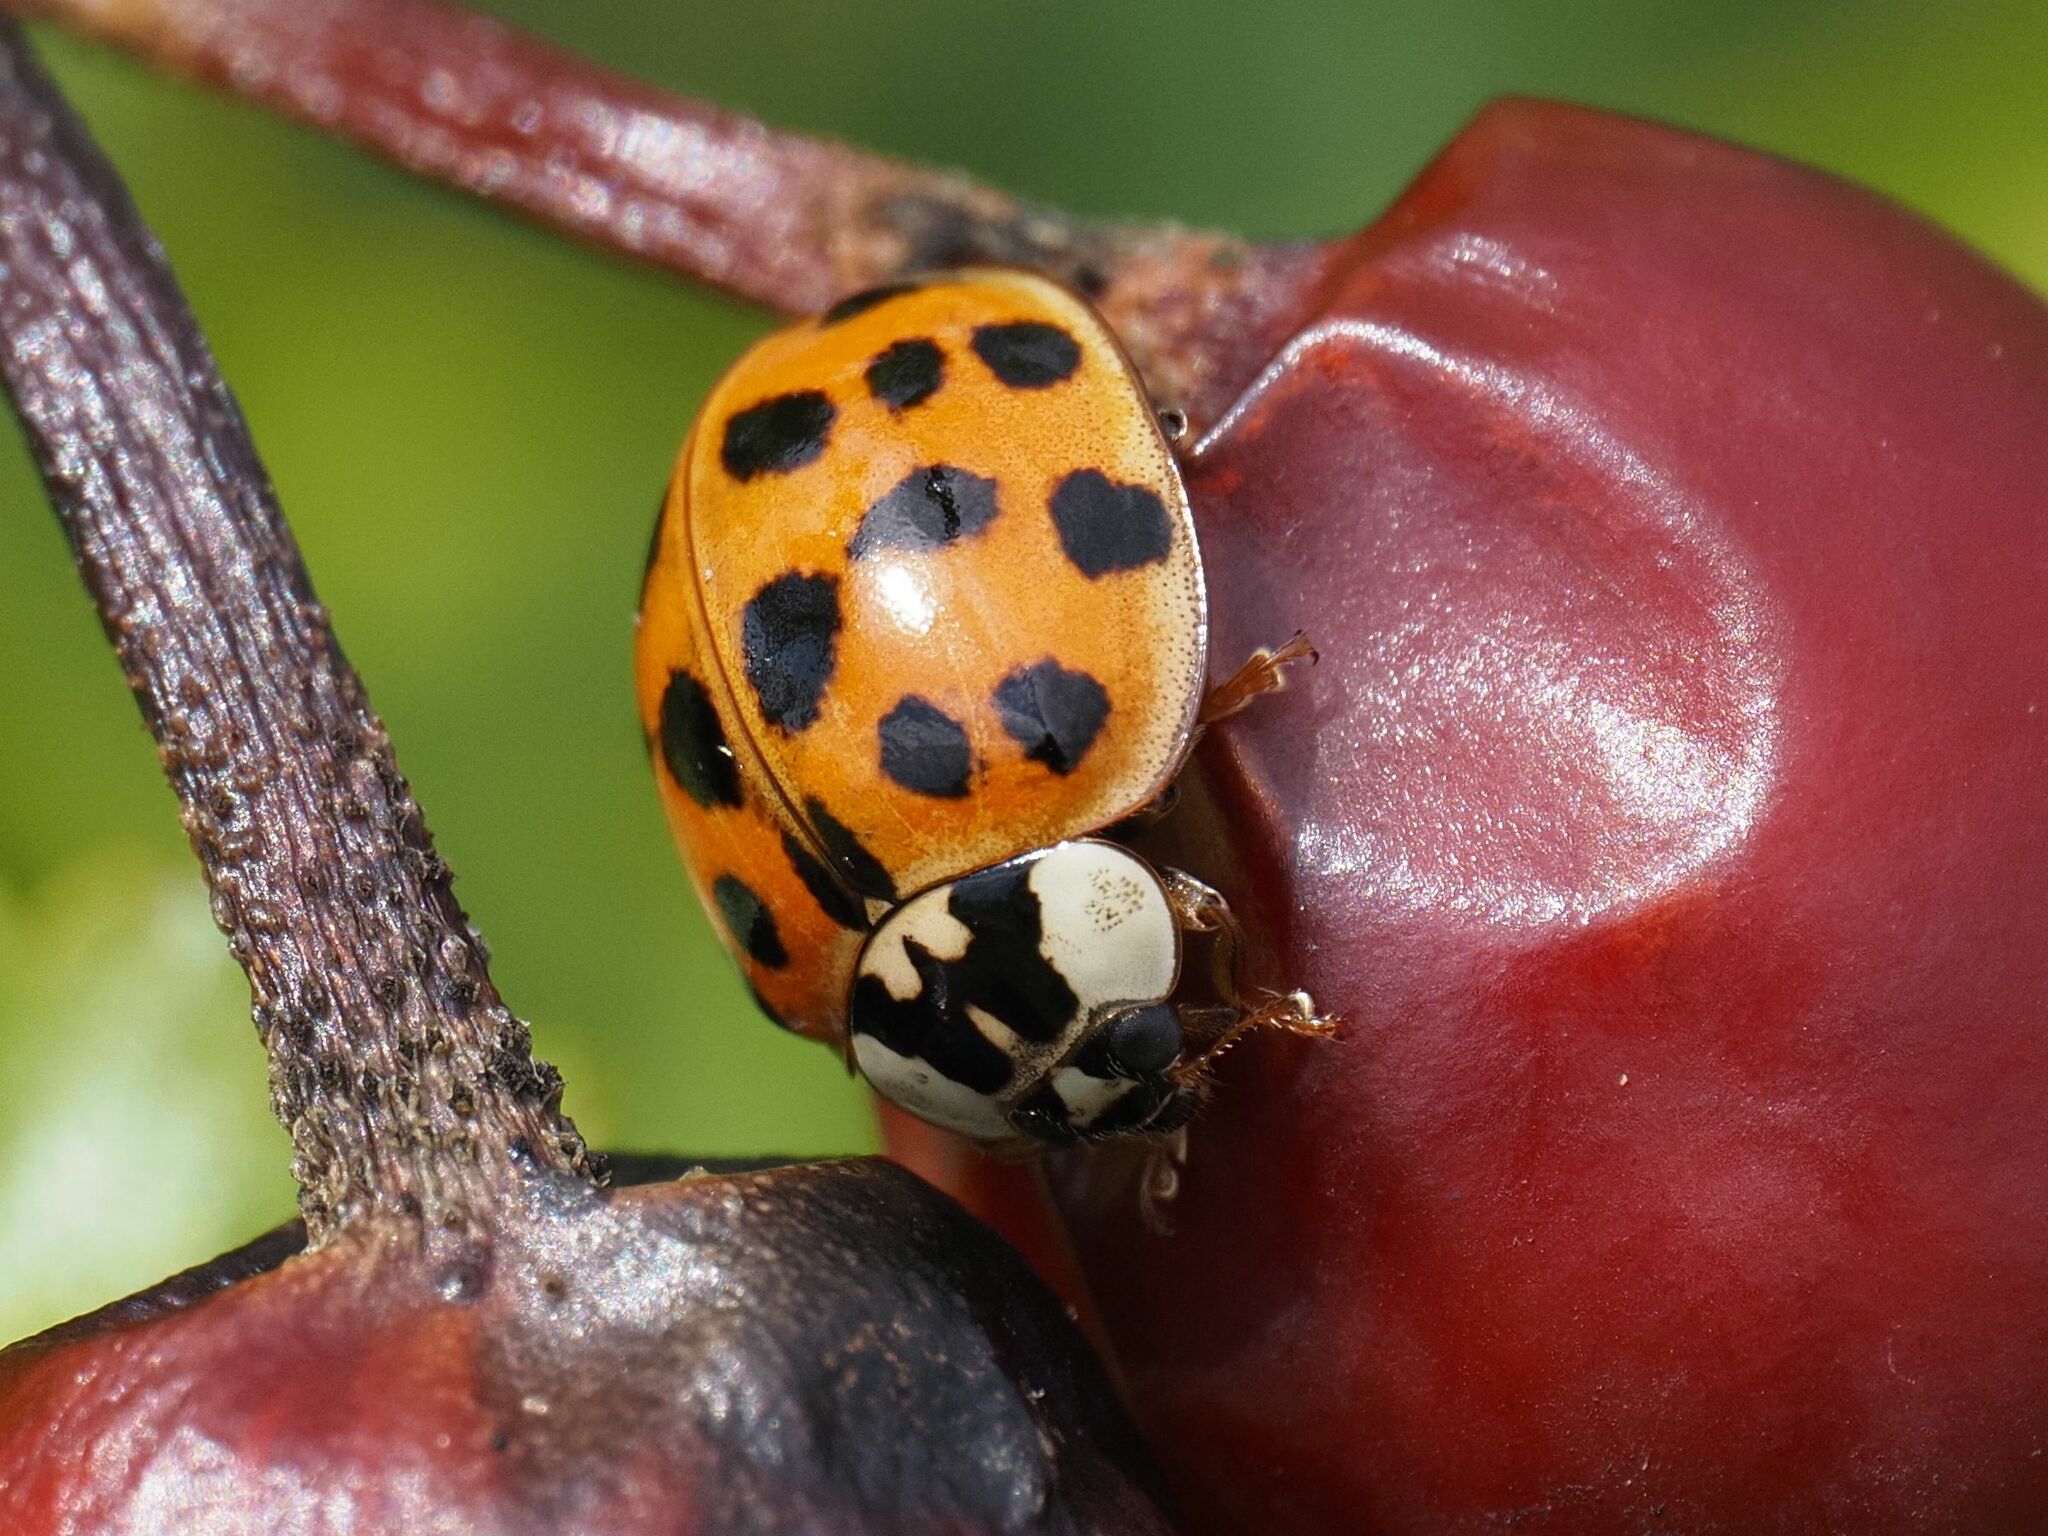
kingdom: Animalia
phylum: Arthropoda
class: Insecta
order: Coleoptera
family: Coccinellidae
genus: Harmonia
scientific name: Harmonia axyridis
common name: Harlequin ladybird
